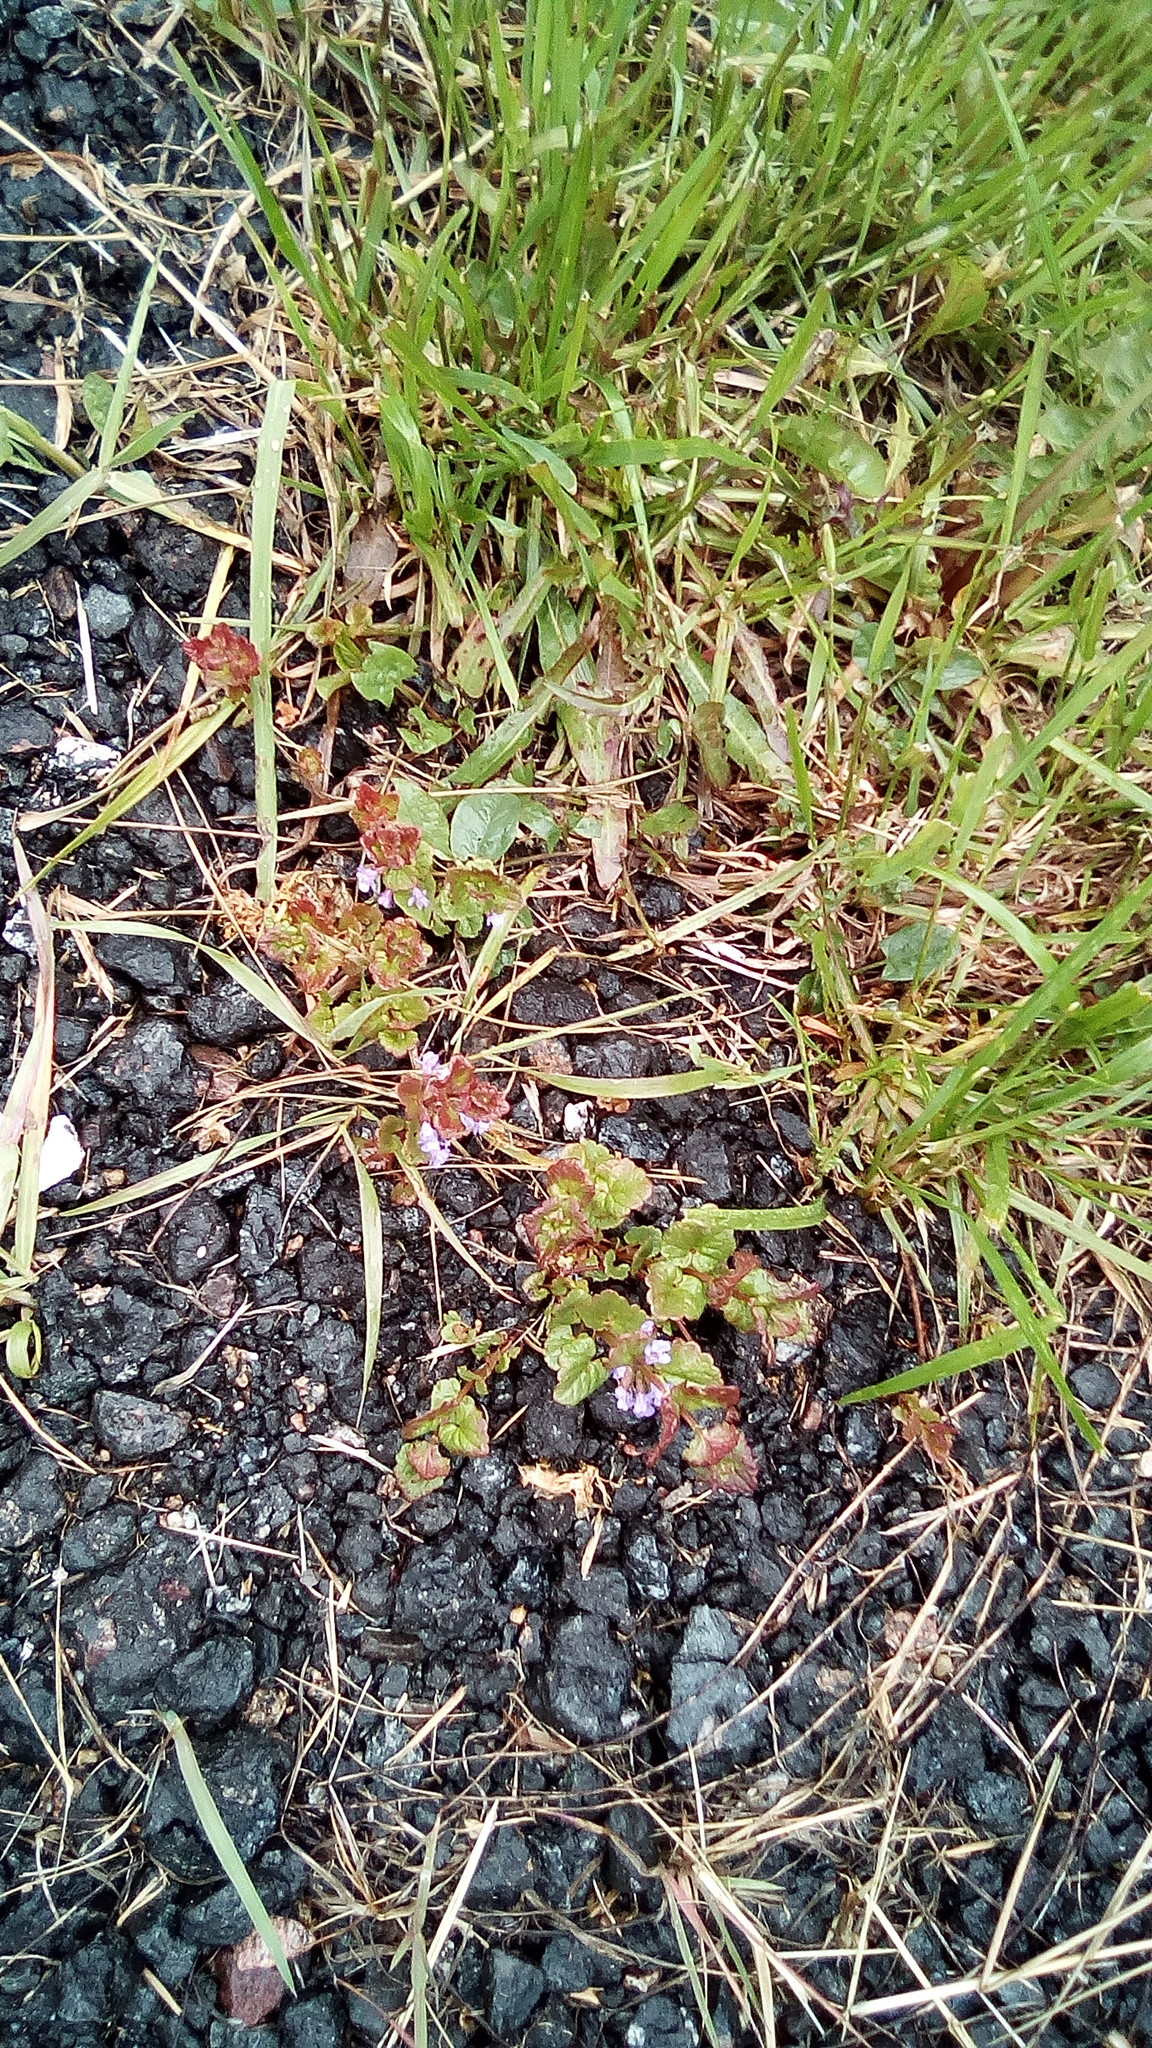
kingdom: Plantae
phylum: Tracheophyta
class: Magnoliopsida
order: Lamiales
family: Lamiaceae
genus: Glechoma
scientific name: Glechoma hederacea
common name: Ground ivy
